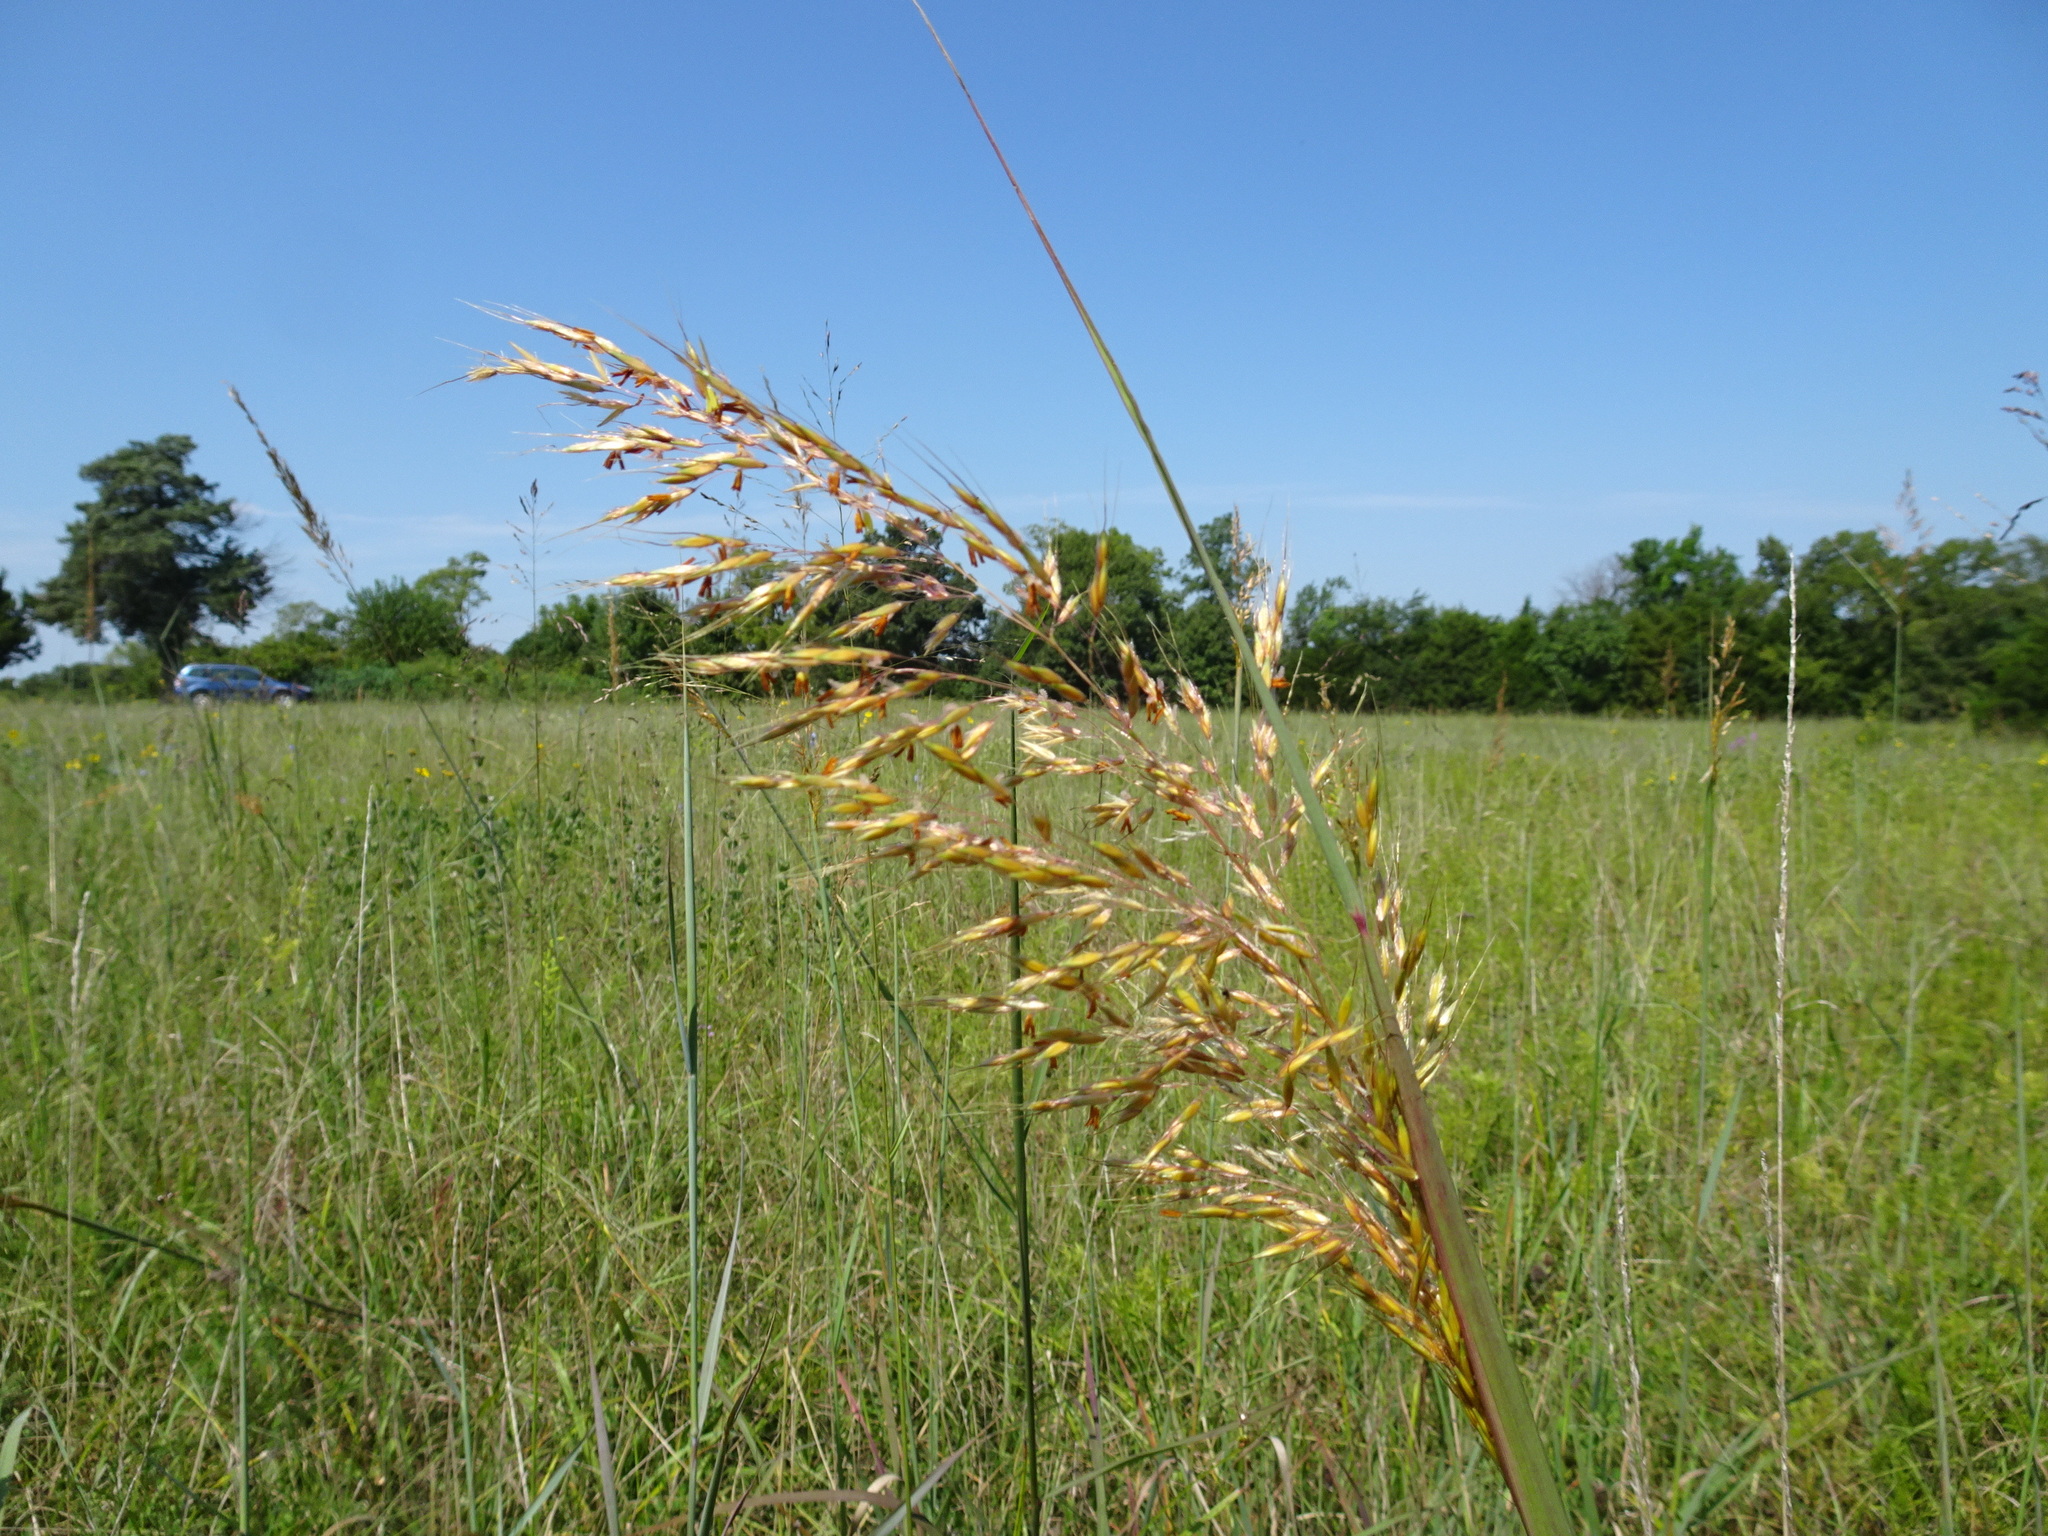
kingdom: Plantae
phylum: Tracheophyta
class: Liliopsida
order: Poales
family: Poaceae
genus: Sorghastrum
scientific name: Sorghastrum nutans
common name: Indian grass
